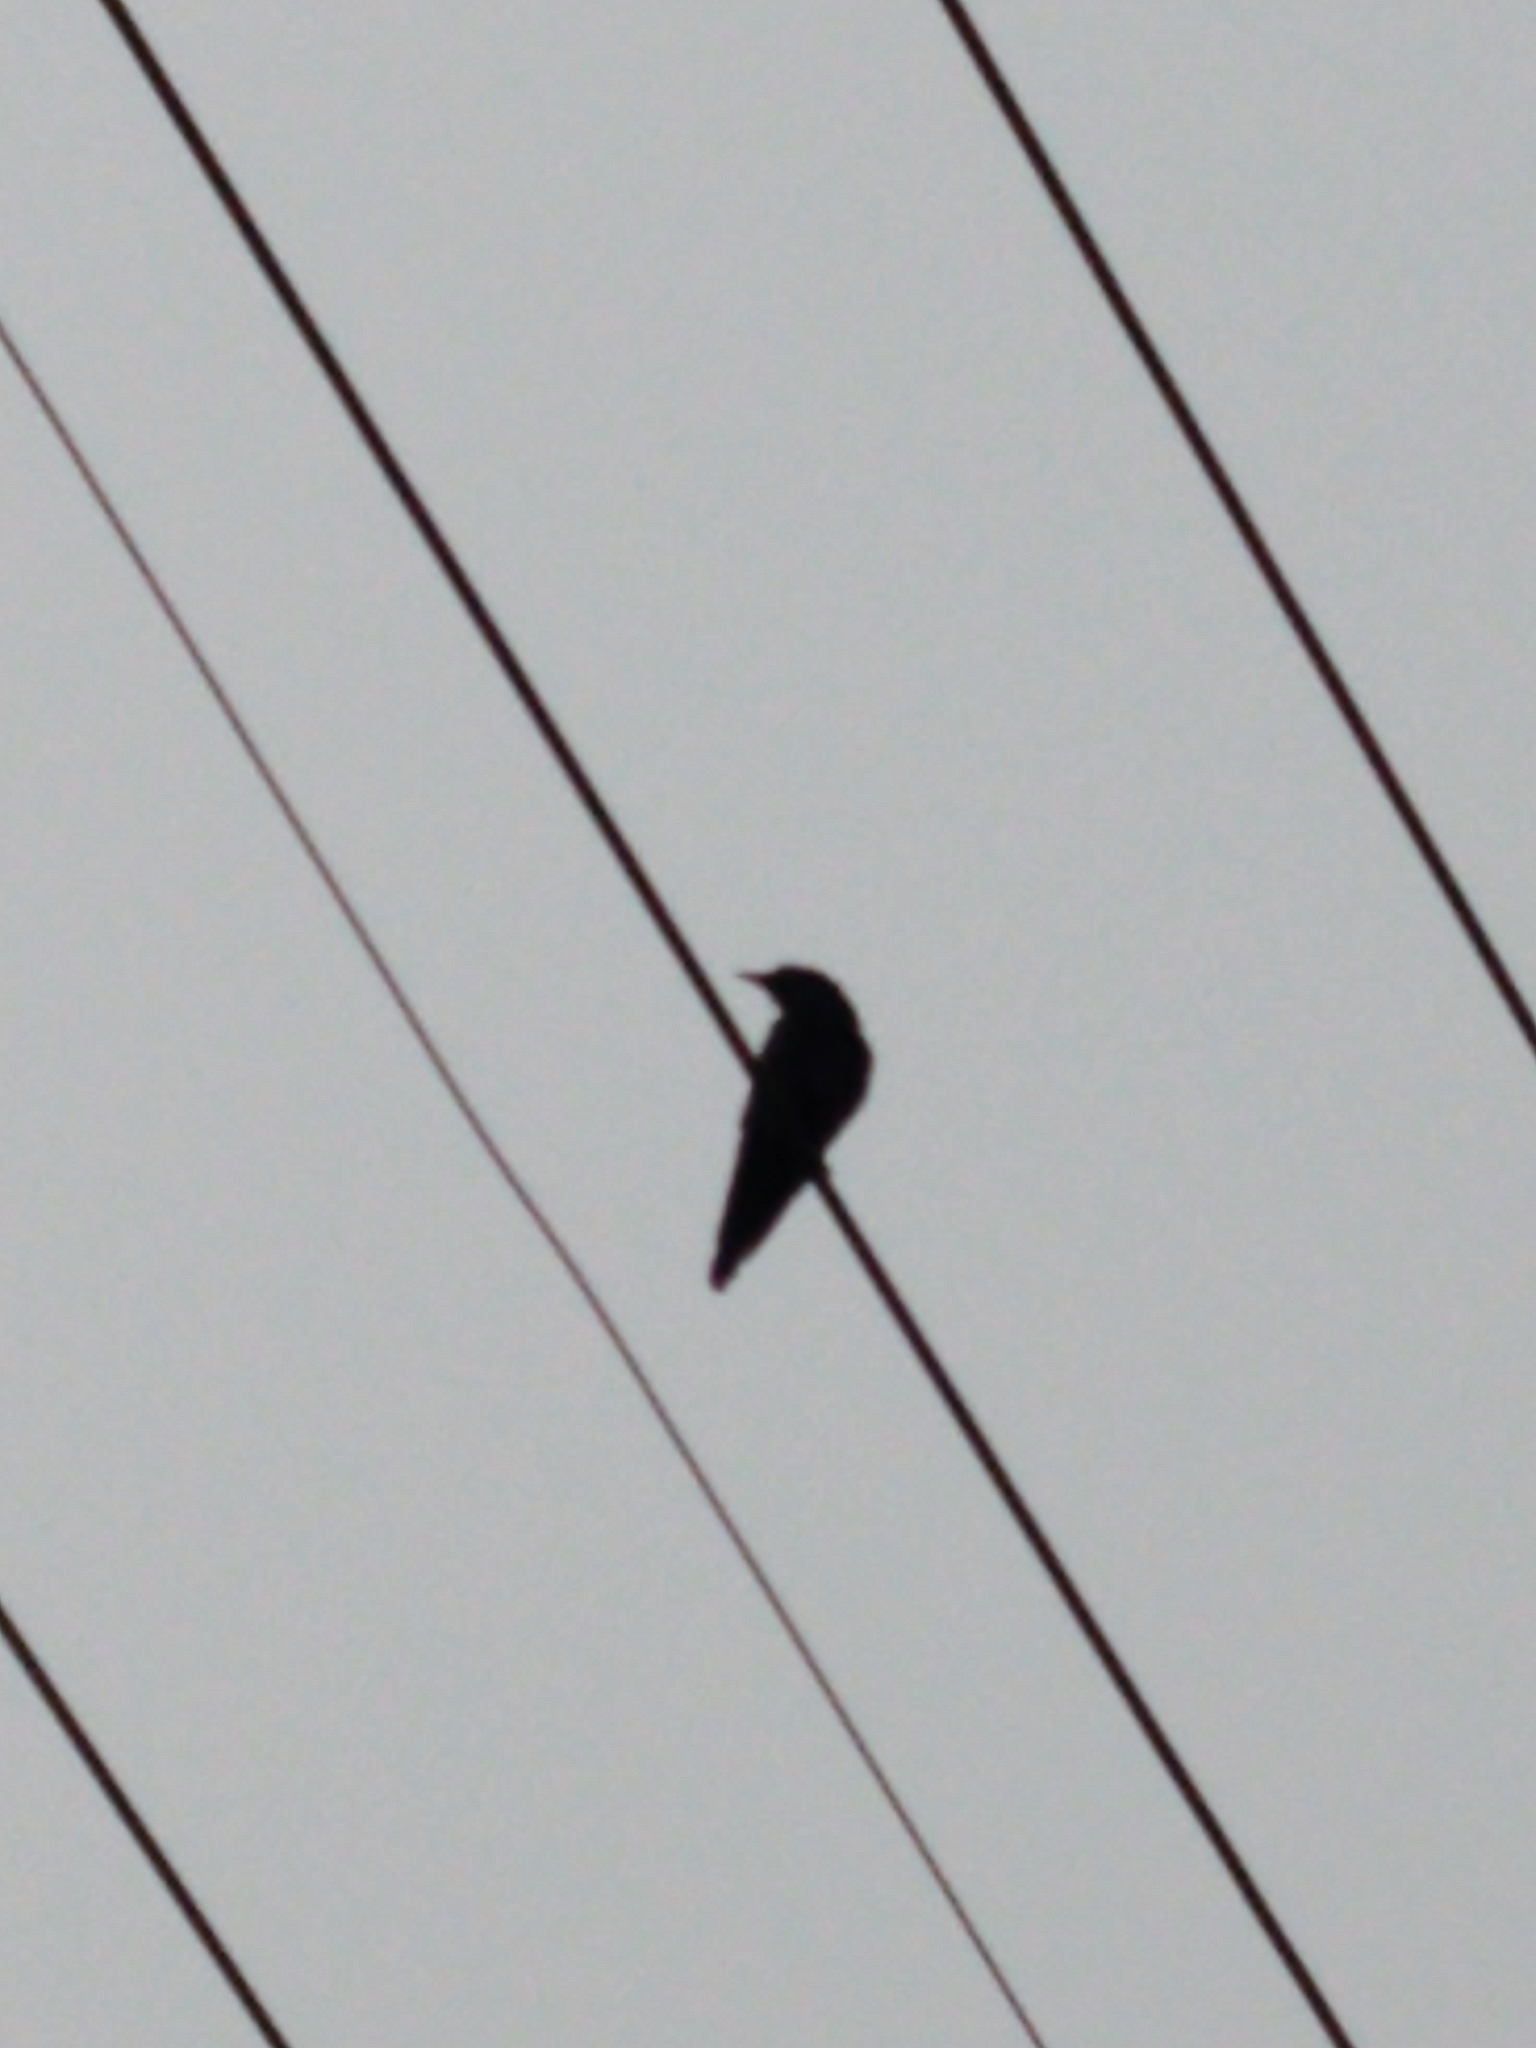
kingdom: Animalia
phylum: Chordata
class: Aves
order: Passeriformes
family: Corvidae
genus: Corvus
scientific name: Corvus brachyrhynchos
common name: American crow
